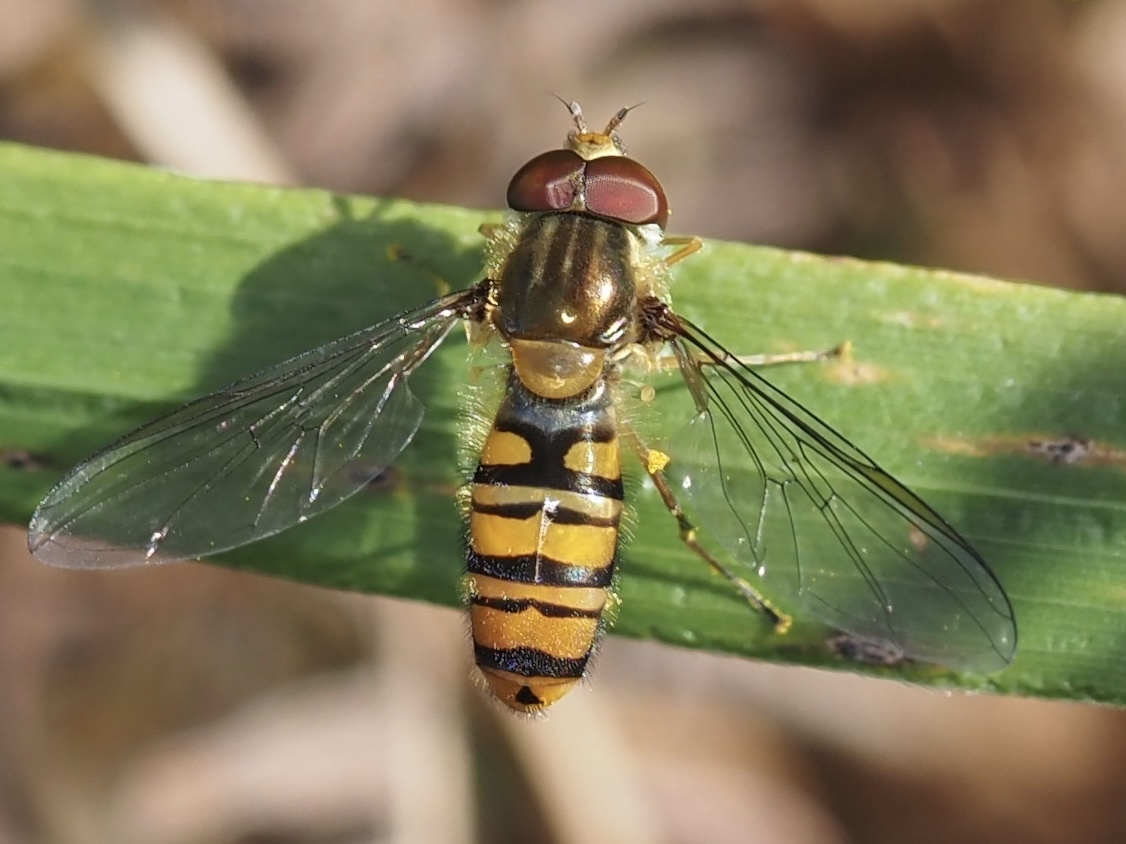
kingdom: Animalia
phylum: Arthropoda
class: Insecta
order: Diptera
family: Syrphidae
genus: Episyrphus
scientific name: Episyrphus balteatus
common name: Marmalade hoverfly
